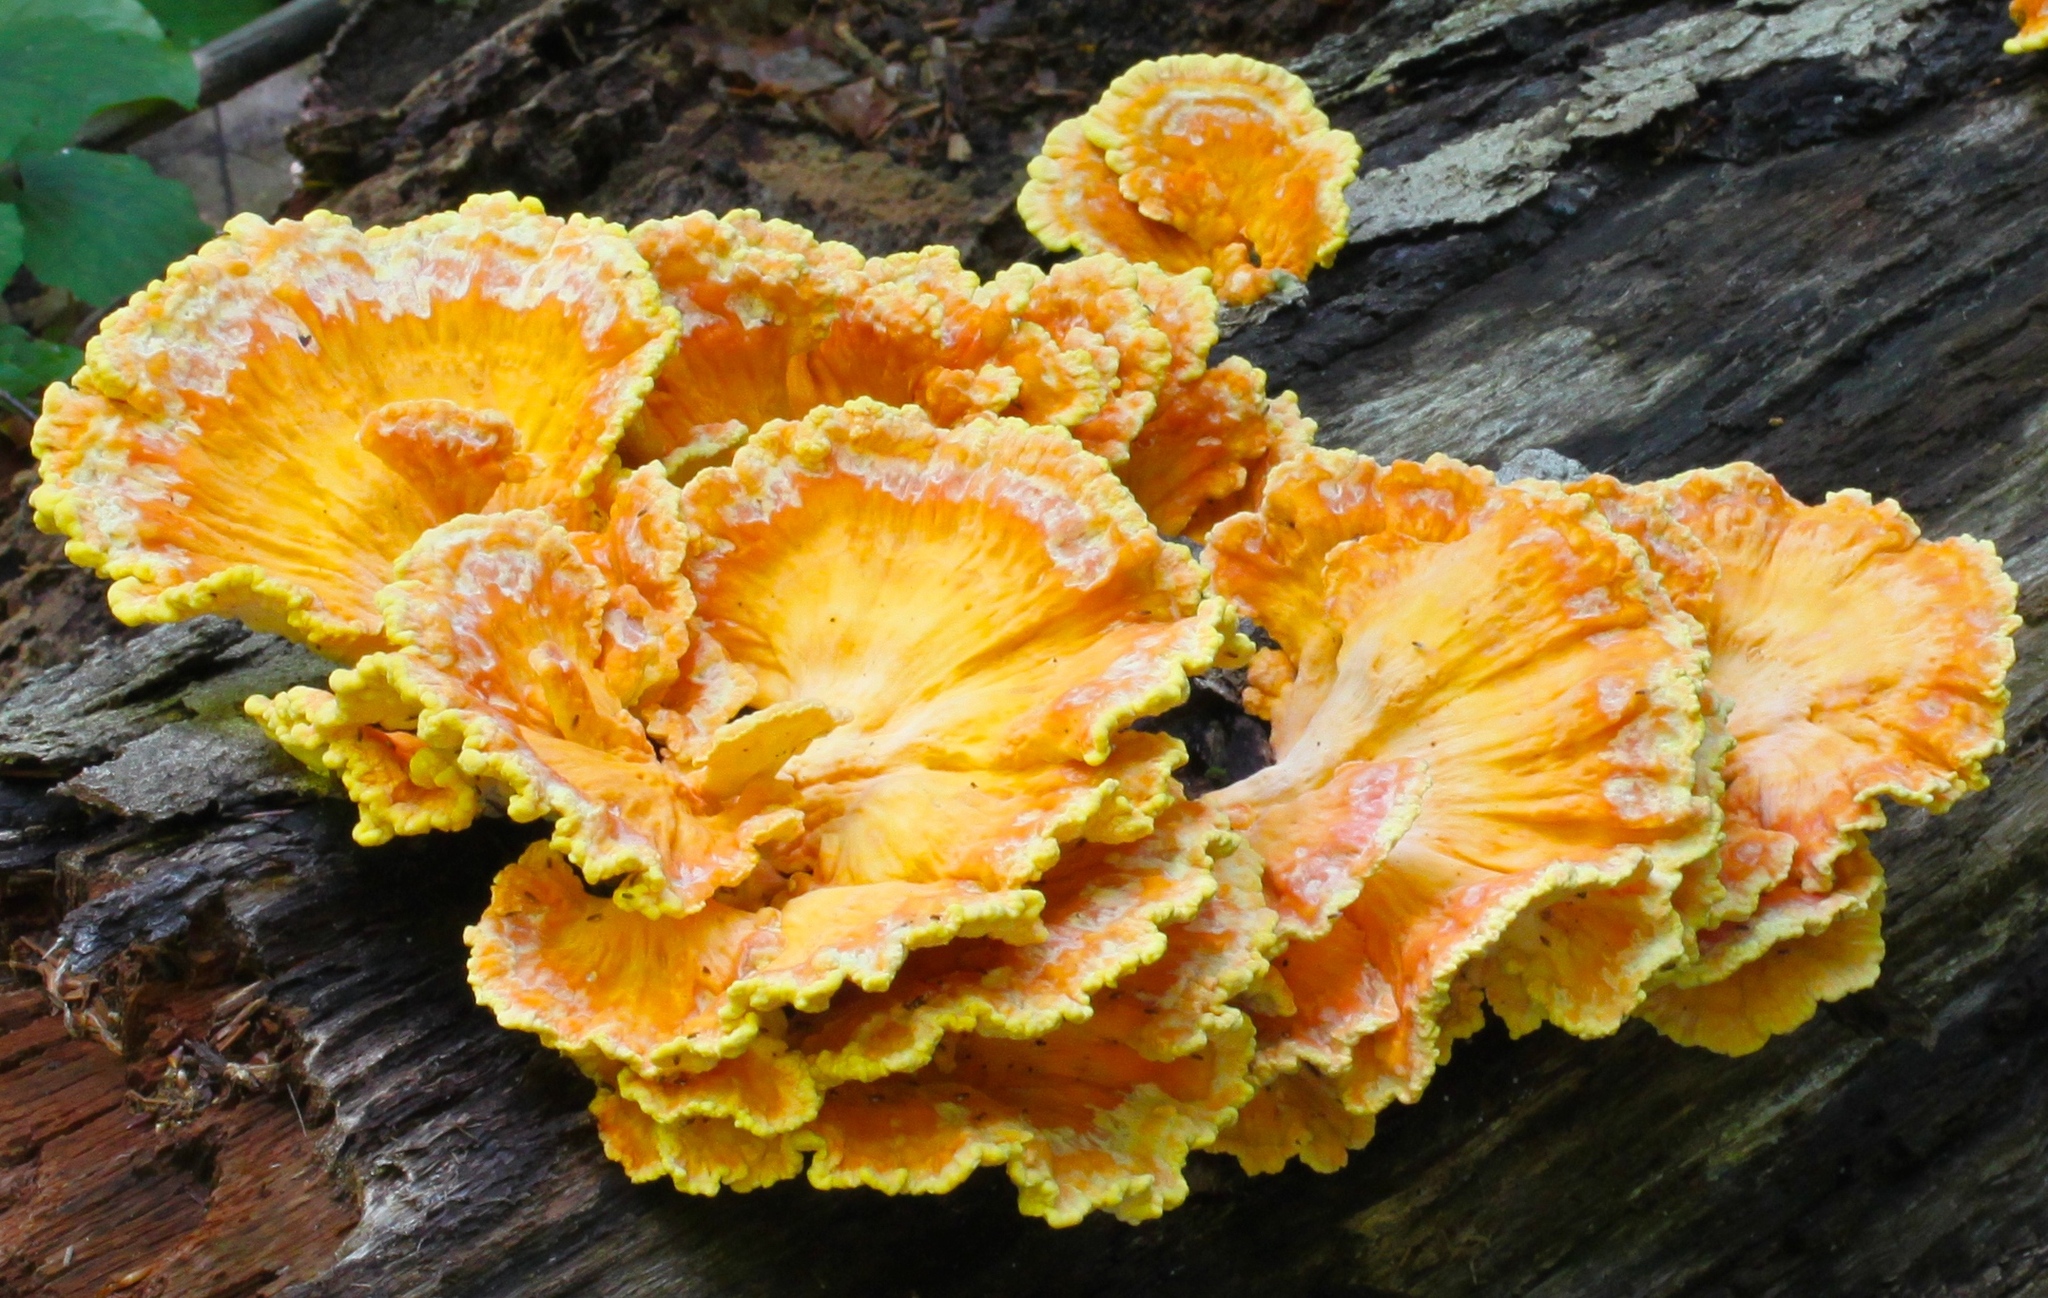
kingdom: Fungi
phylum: Basidiomycota
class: Agaricomycetes
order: Polyporales
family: Laetiporaceae
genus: Laetiporus
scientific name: Laetiporus sulphureus
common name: Chicken of the woods
